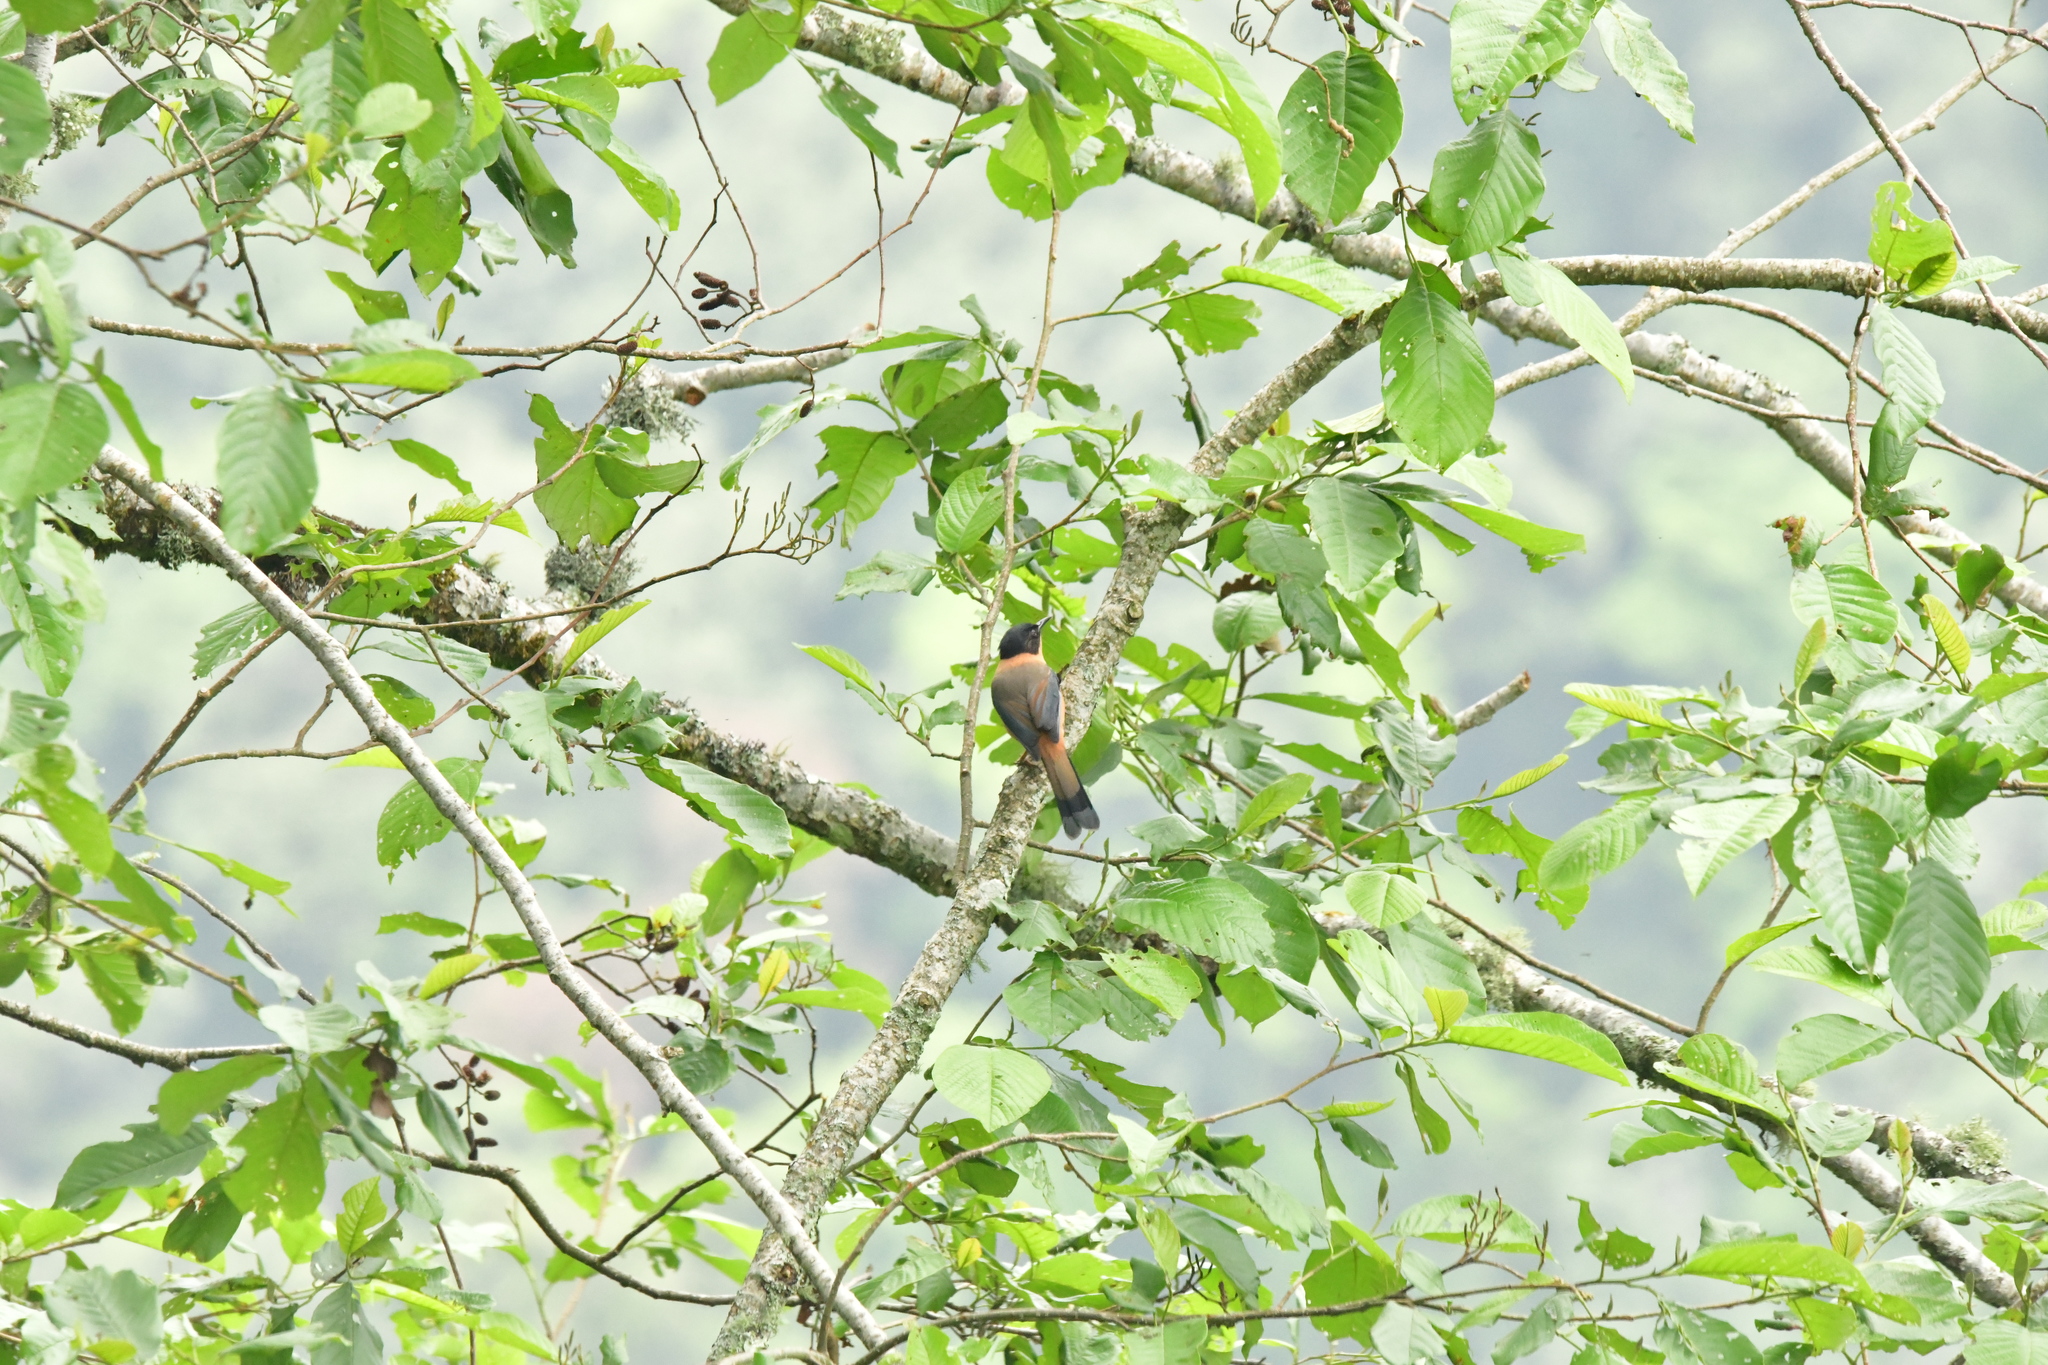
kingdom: Animalia
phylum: Chordata
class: Aves
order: Passeriformes
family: Leiothrichidae
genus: Heterophasia
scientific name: Heterophasia capistrata
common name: Rufous sibia
